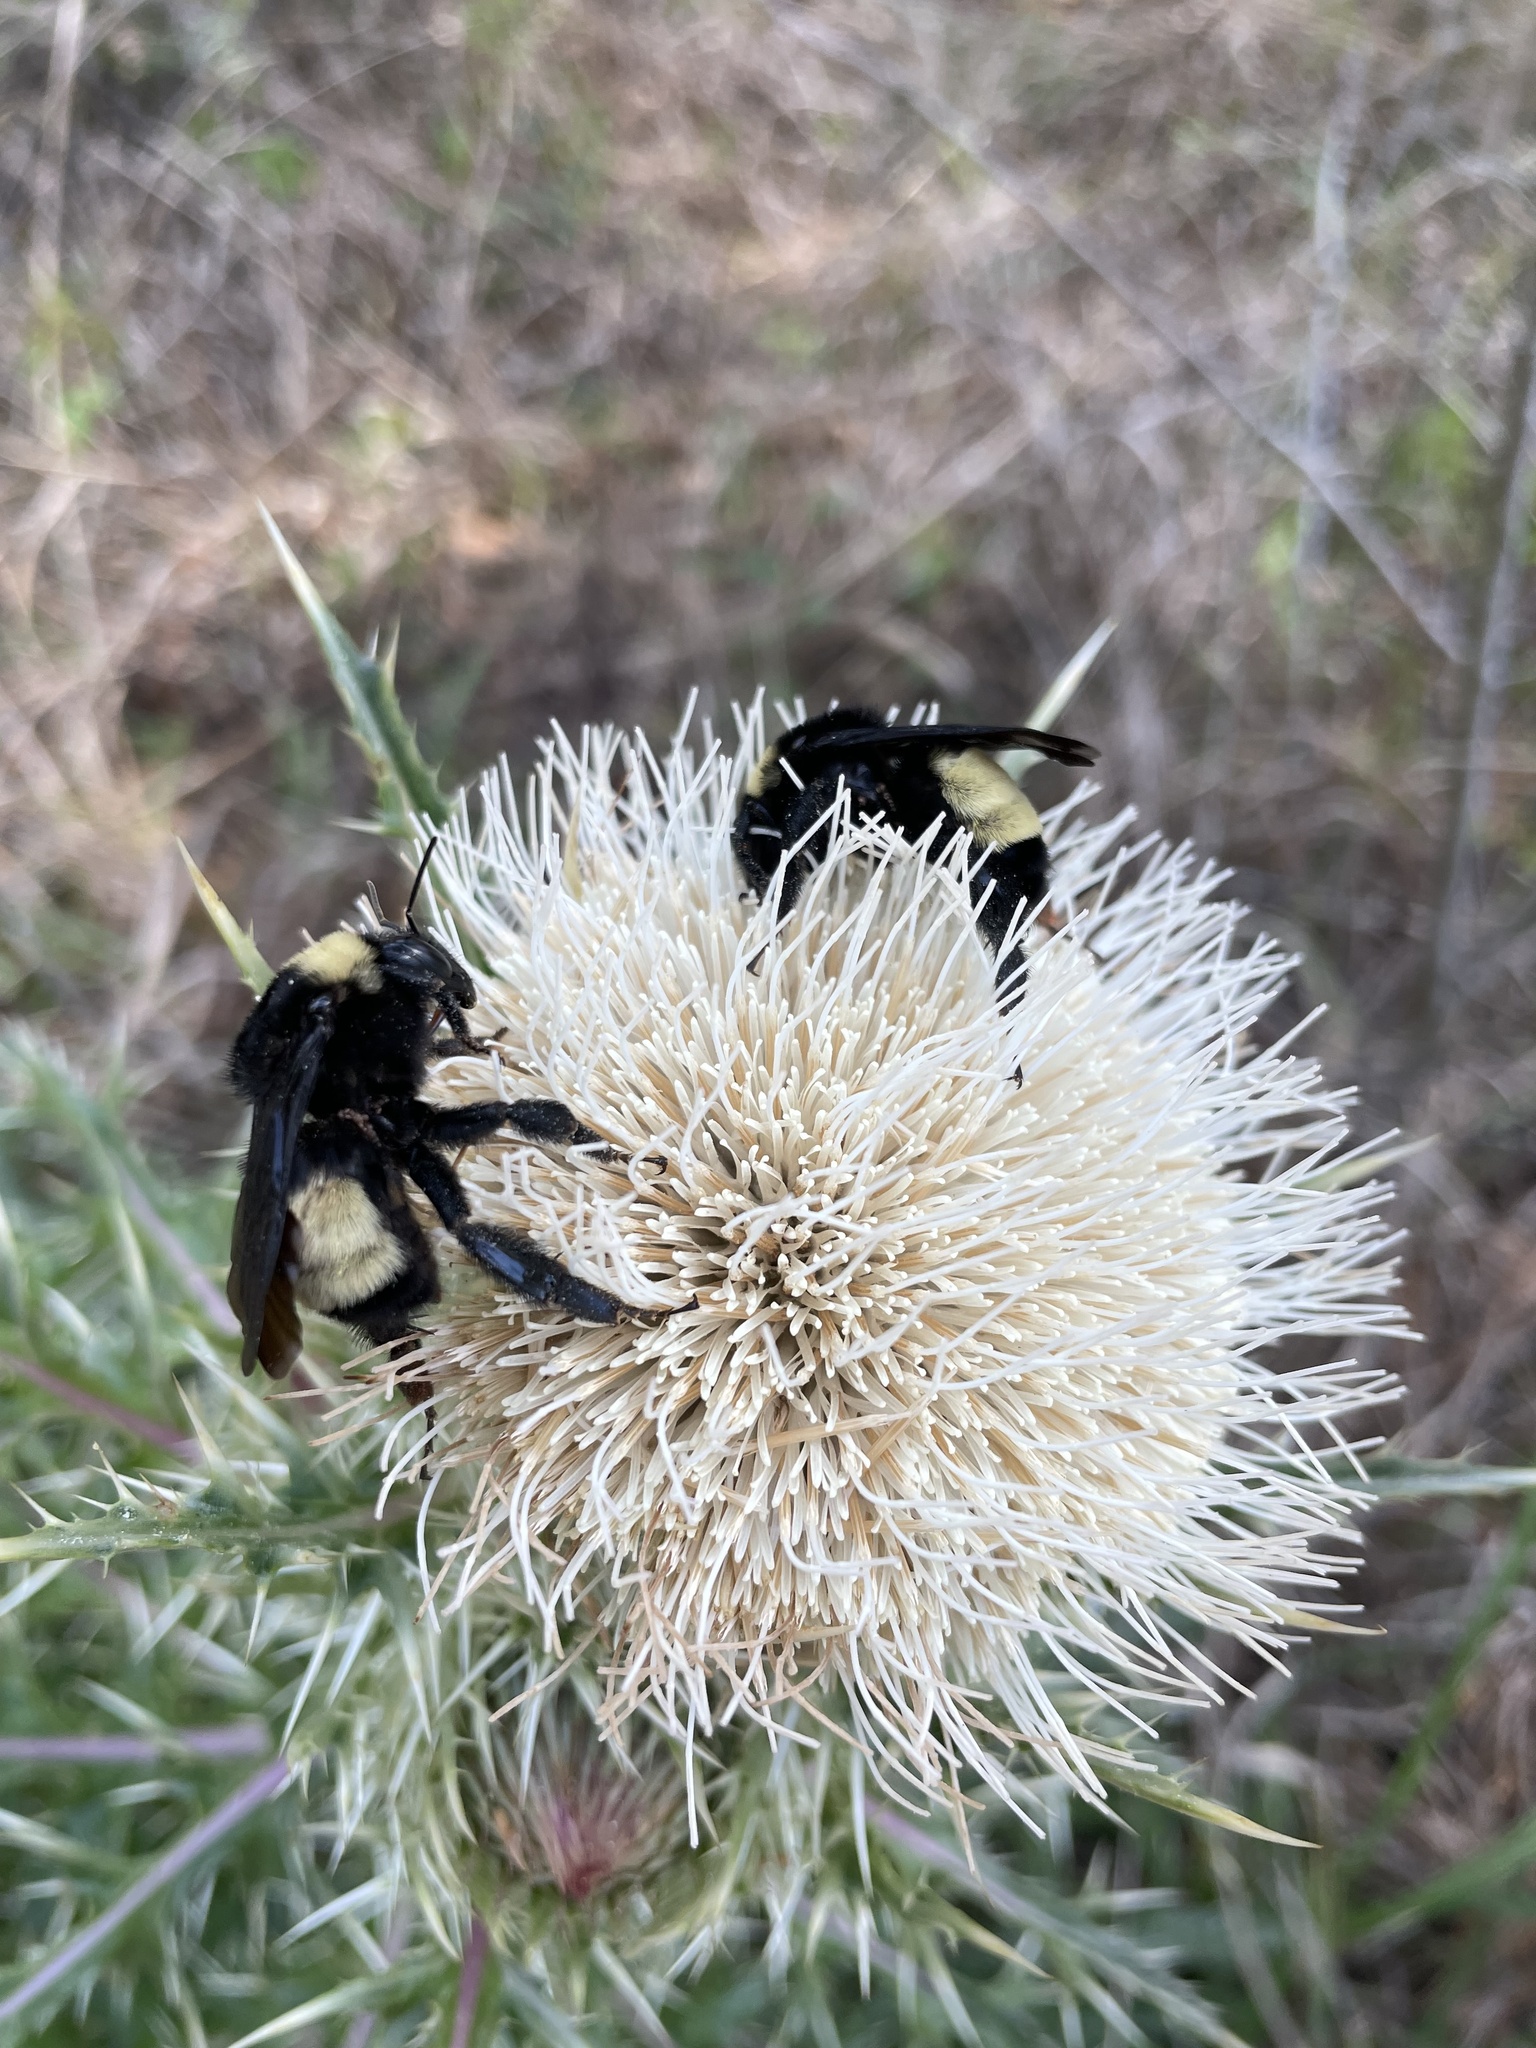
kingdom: Animalia
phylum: Arthropoda
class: Insecta
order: Hymenoptera
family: Apidae
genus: Bombus
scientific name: Bombus pensylvanicus
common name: Bumble bee
